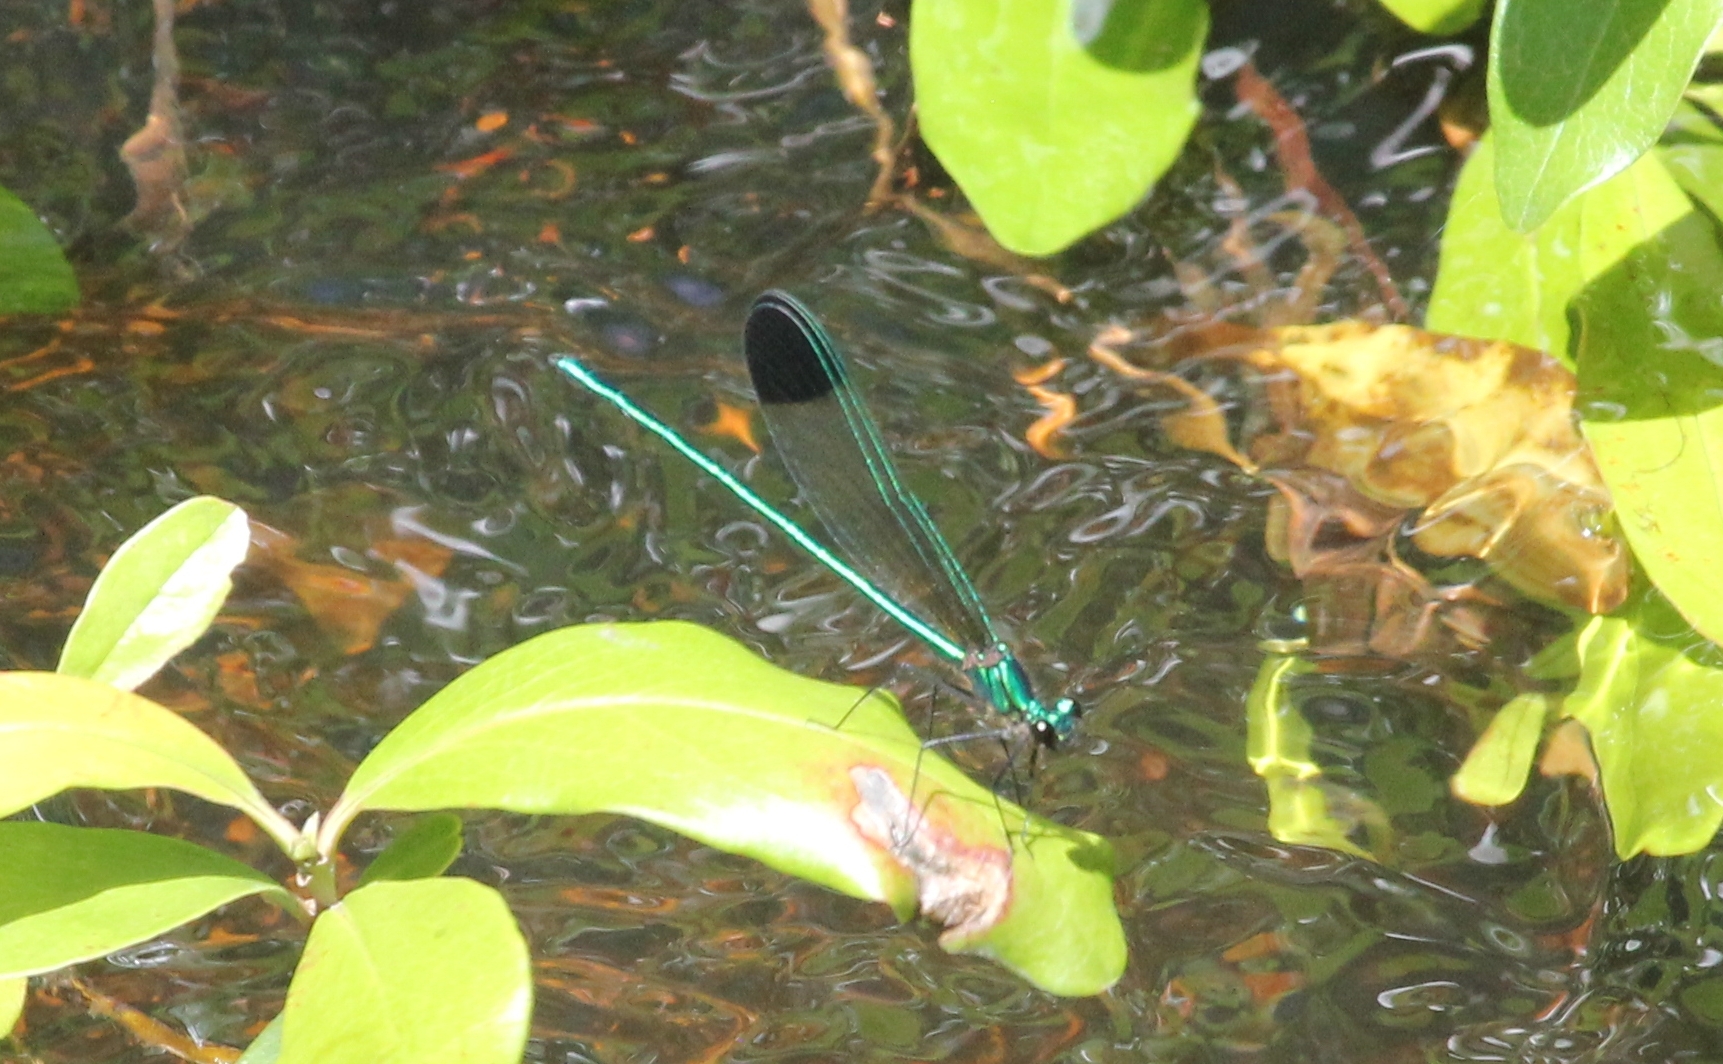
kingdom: Animalia
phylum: Arthropoda
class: Insecta
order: Odonata
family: Calopterygidae
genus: Calopteryx
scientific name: Calopteryx dimidiata
